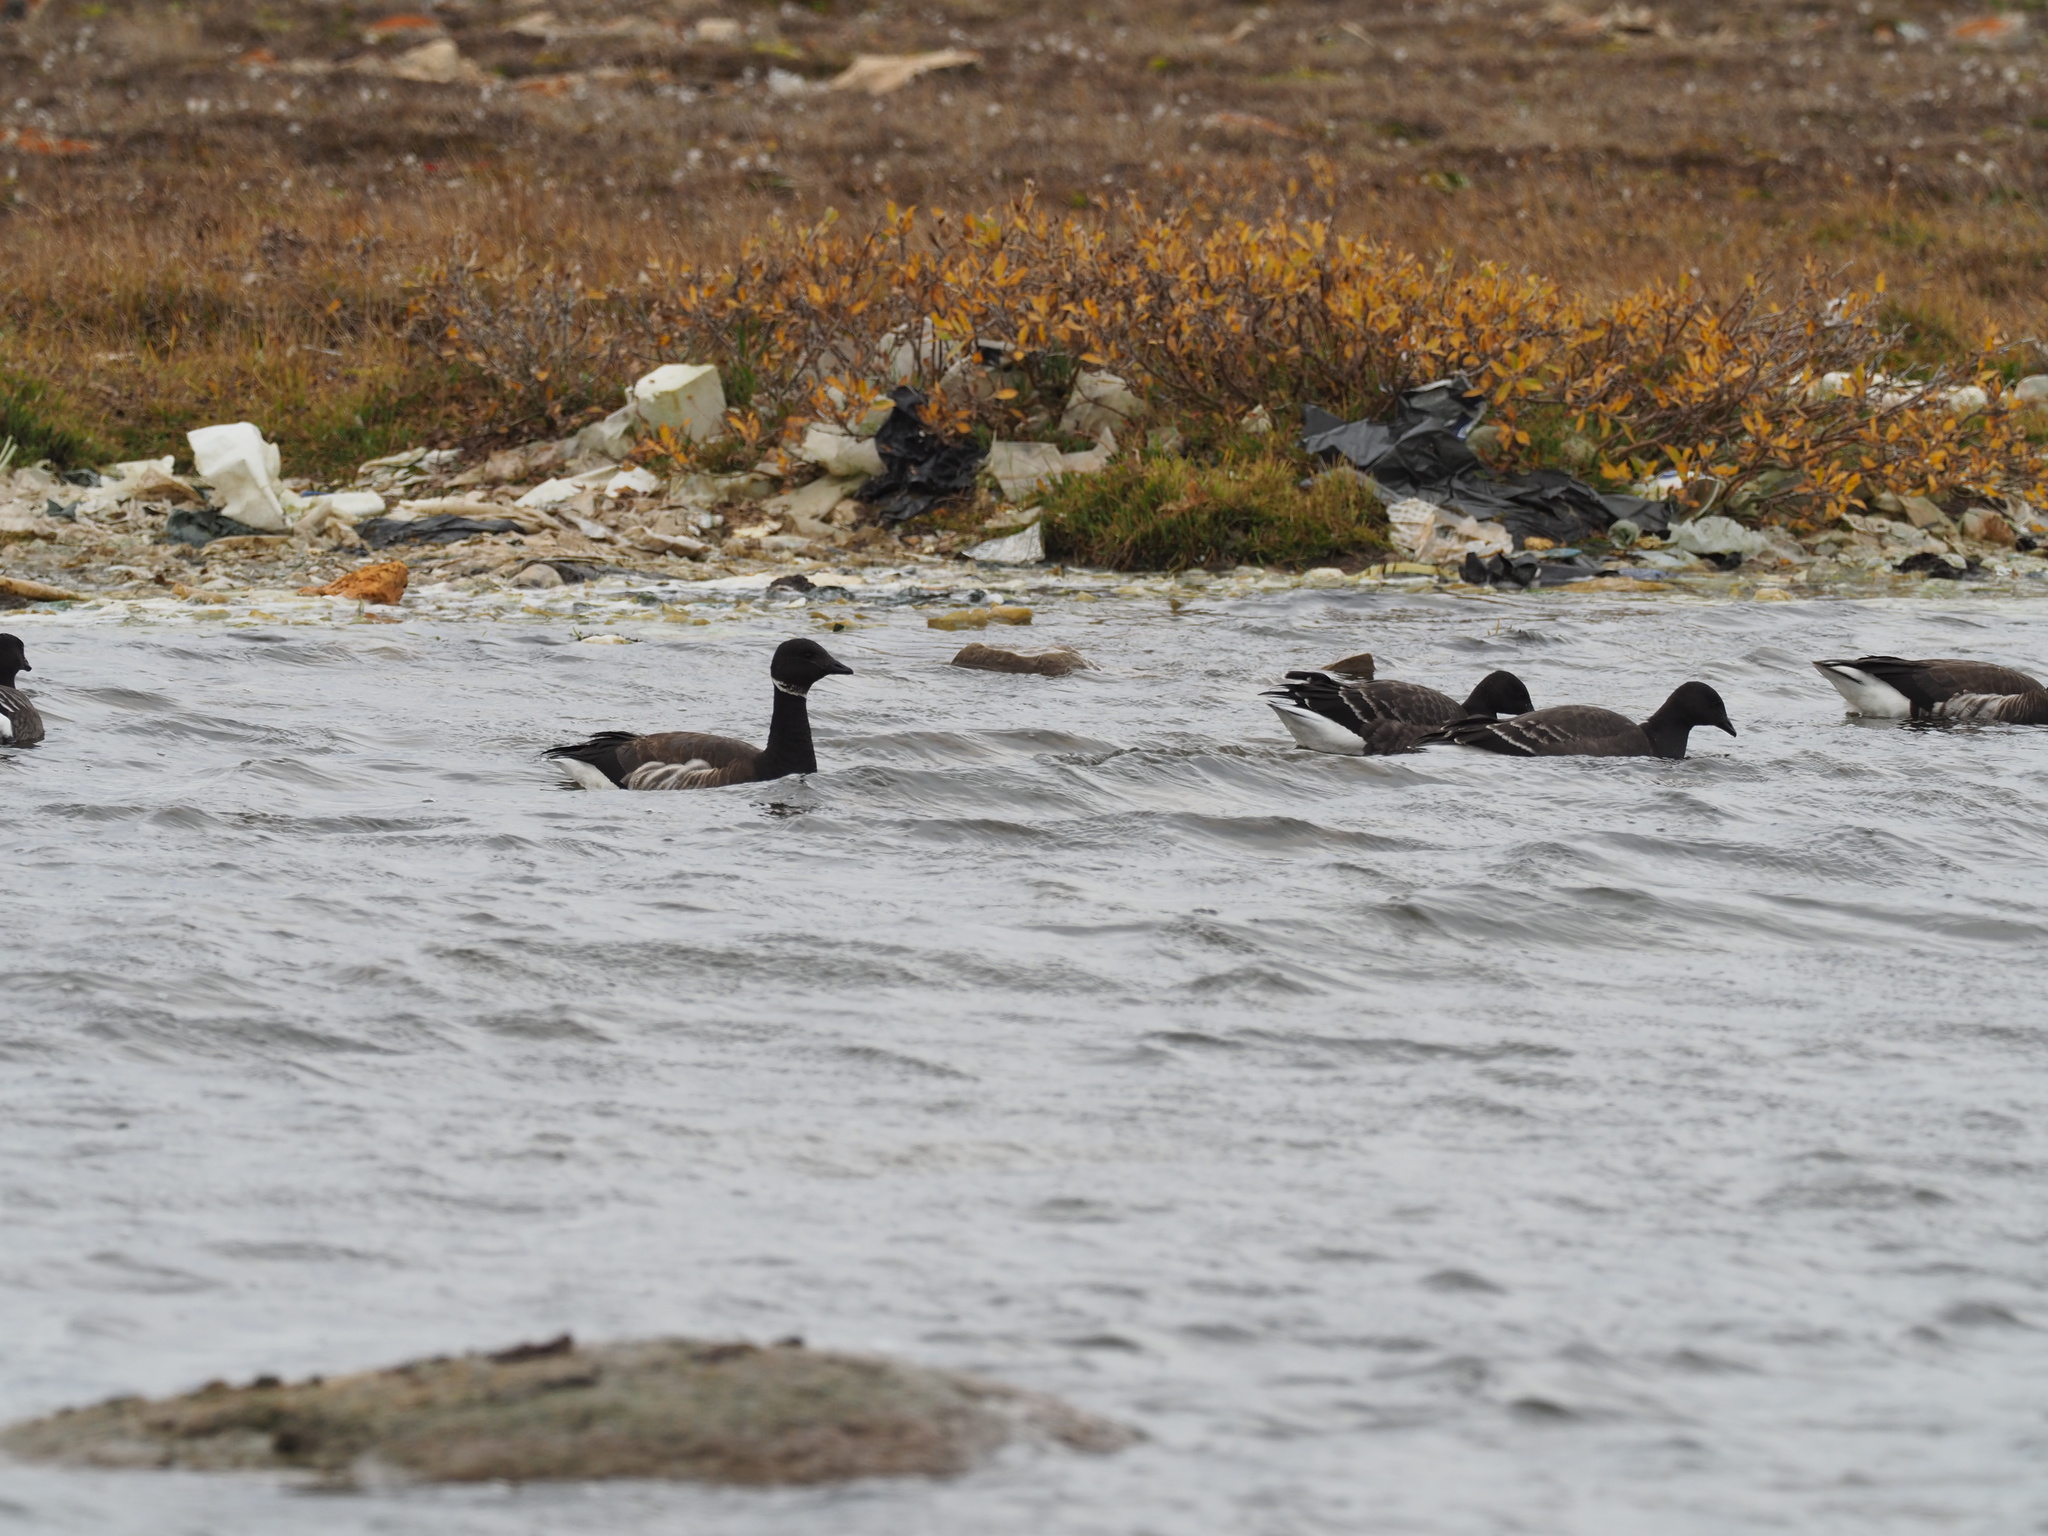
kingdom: Animalia
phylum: Chordata
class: Aves
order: Anseriformes
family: Anatidae
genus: Branta
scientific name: Branta bernicla
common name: Brant goose
